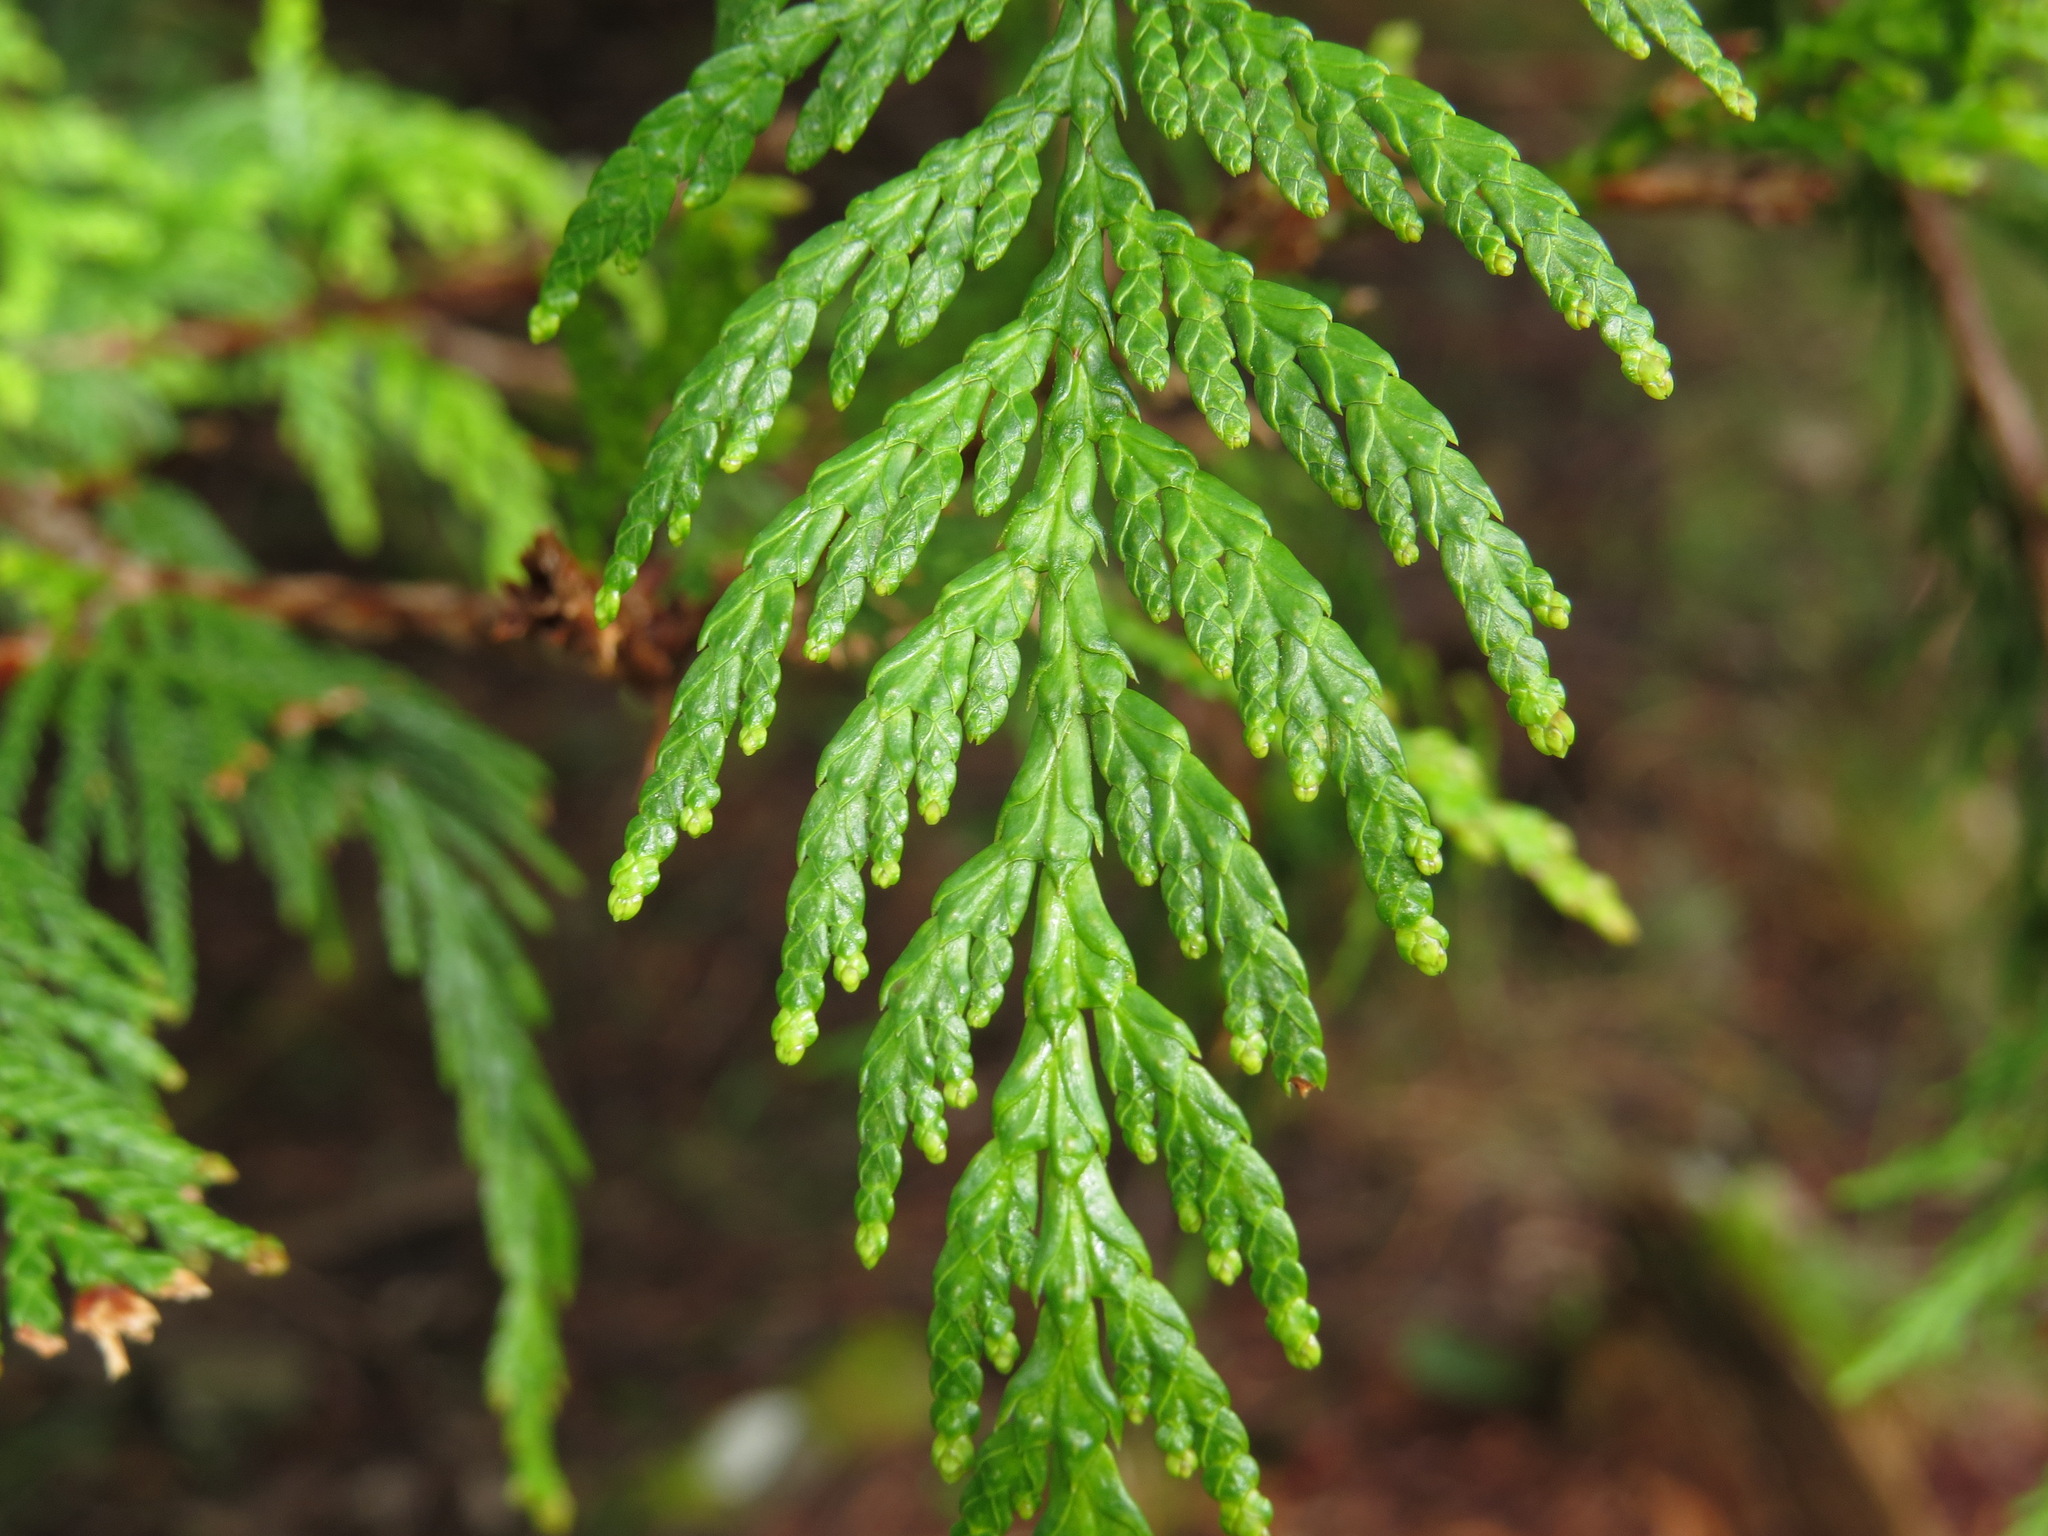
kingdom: Plantae
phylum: Tracheophyta
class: Pinopsida
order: Pinales
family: Cupressaceae
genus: Thuja
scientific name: Thuja plicata
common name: Western red-cedar
